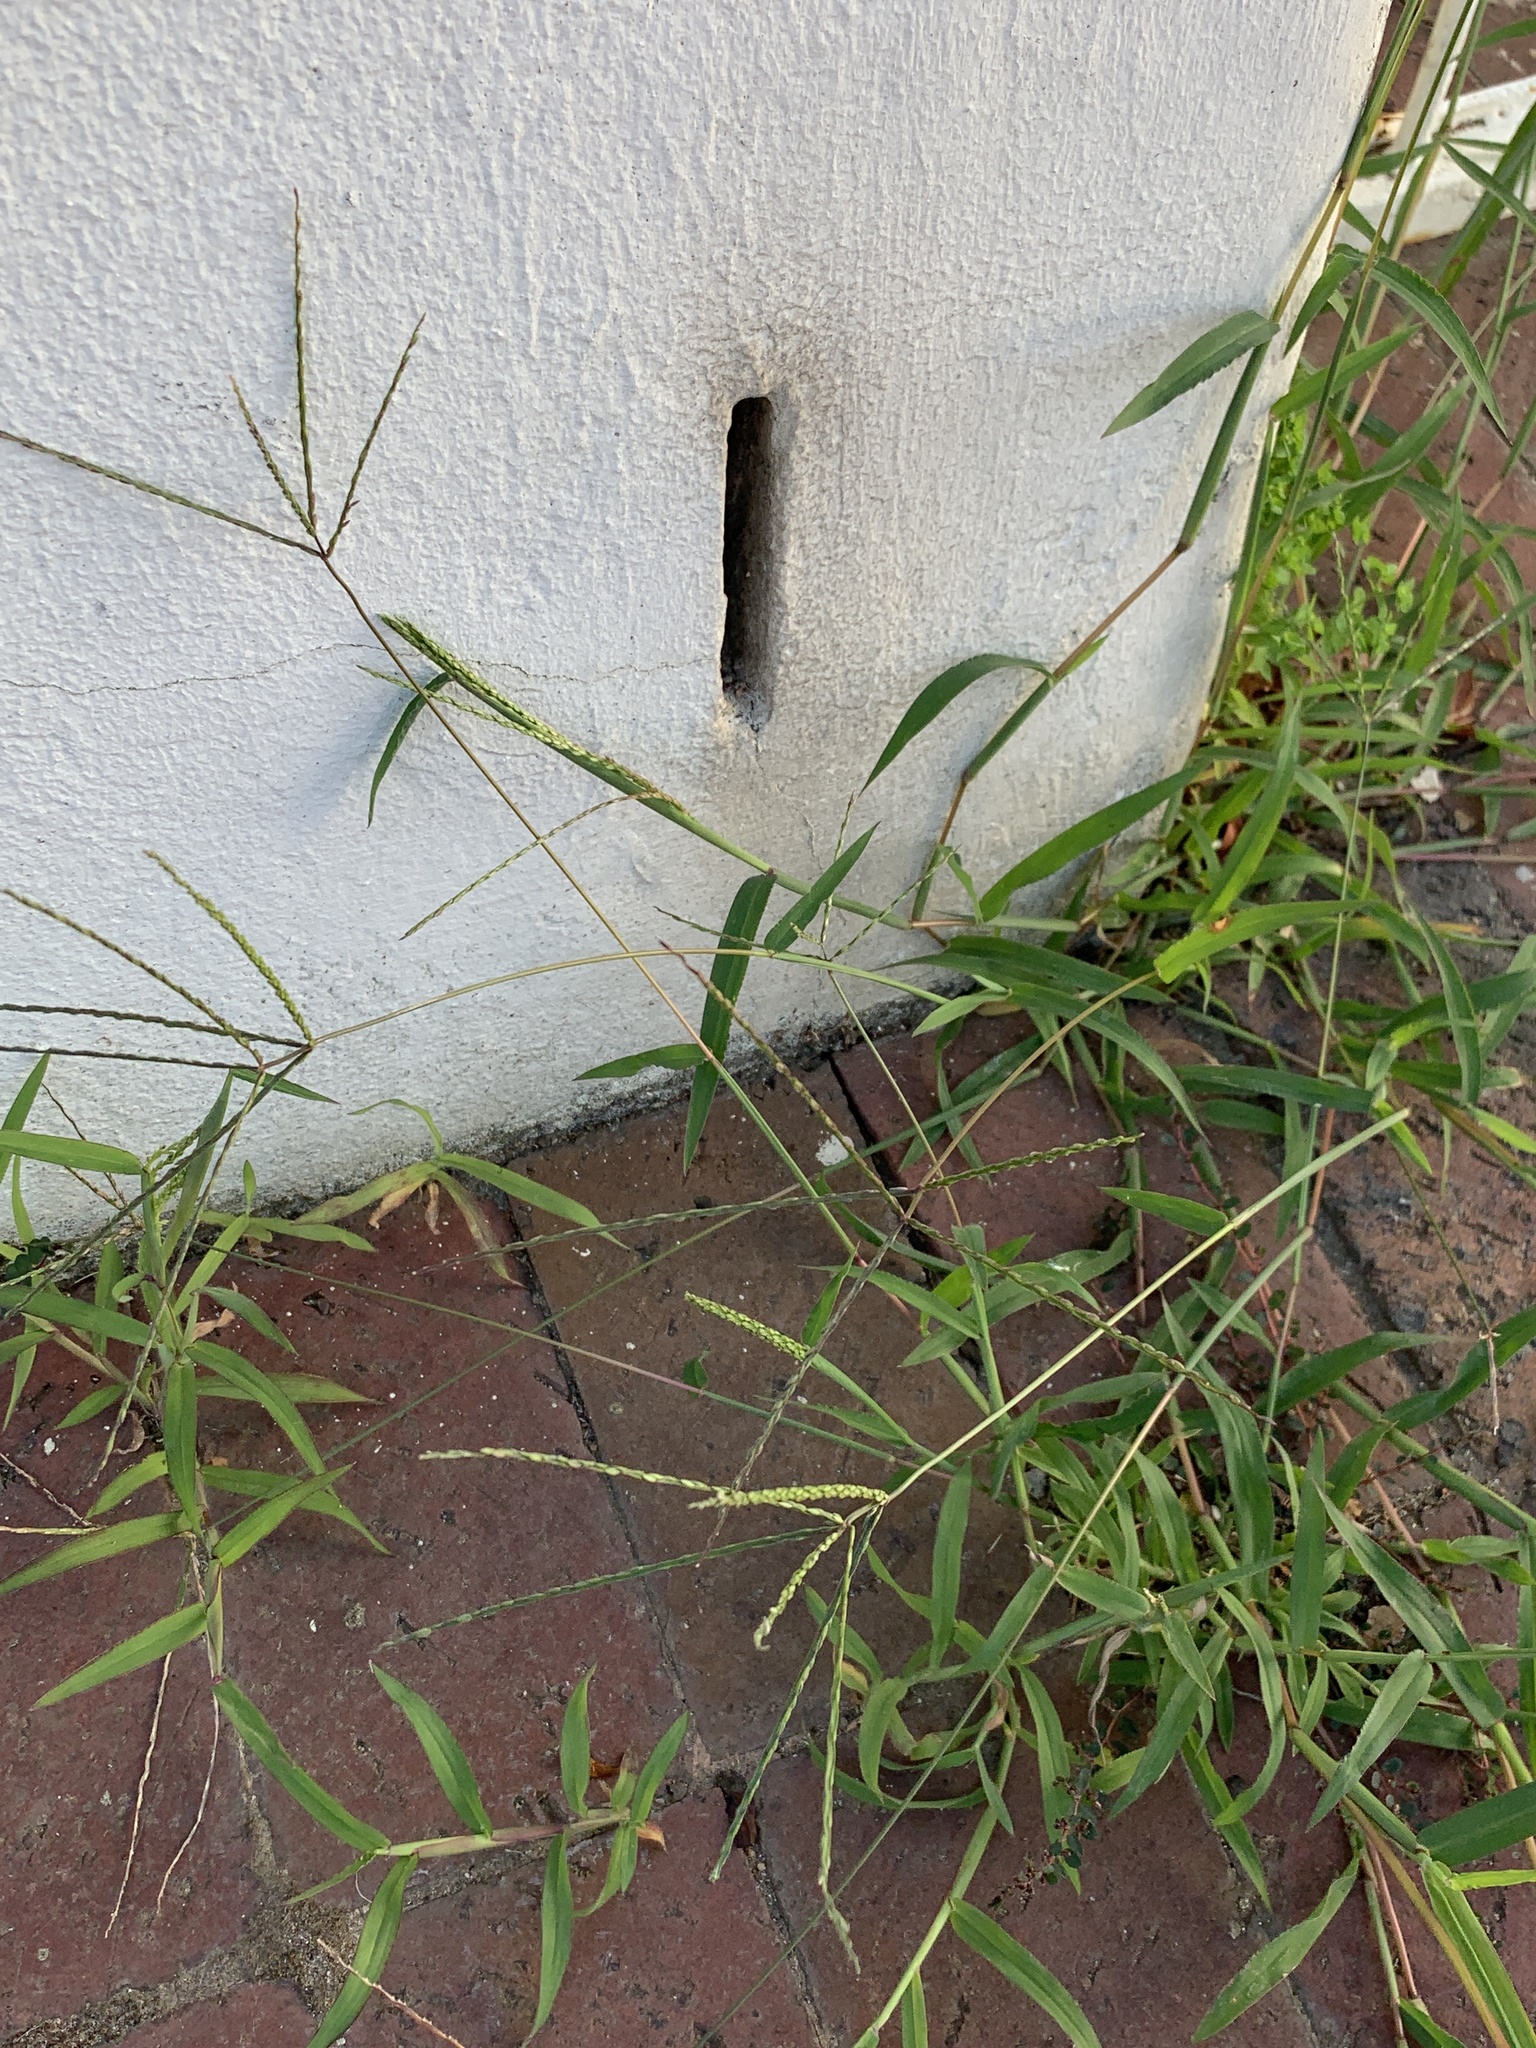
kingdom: Plantae
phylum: Tracheophyta
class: Liliopsida
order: Poales
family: Poaceae
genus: Digitaria
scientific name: Digitaria sanguinalis
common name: Hairy crabgrass
